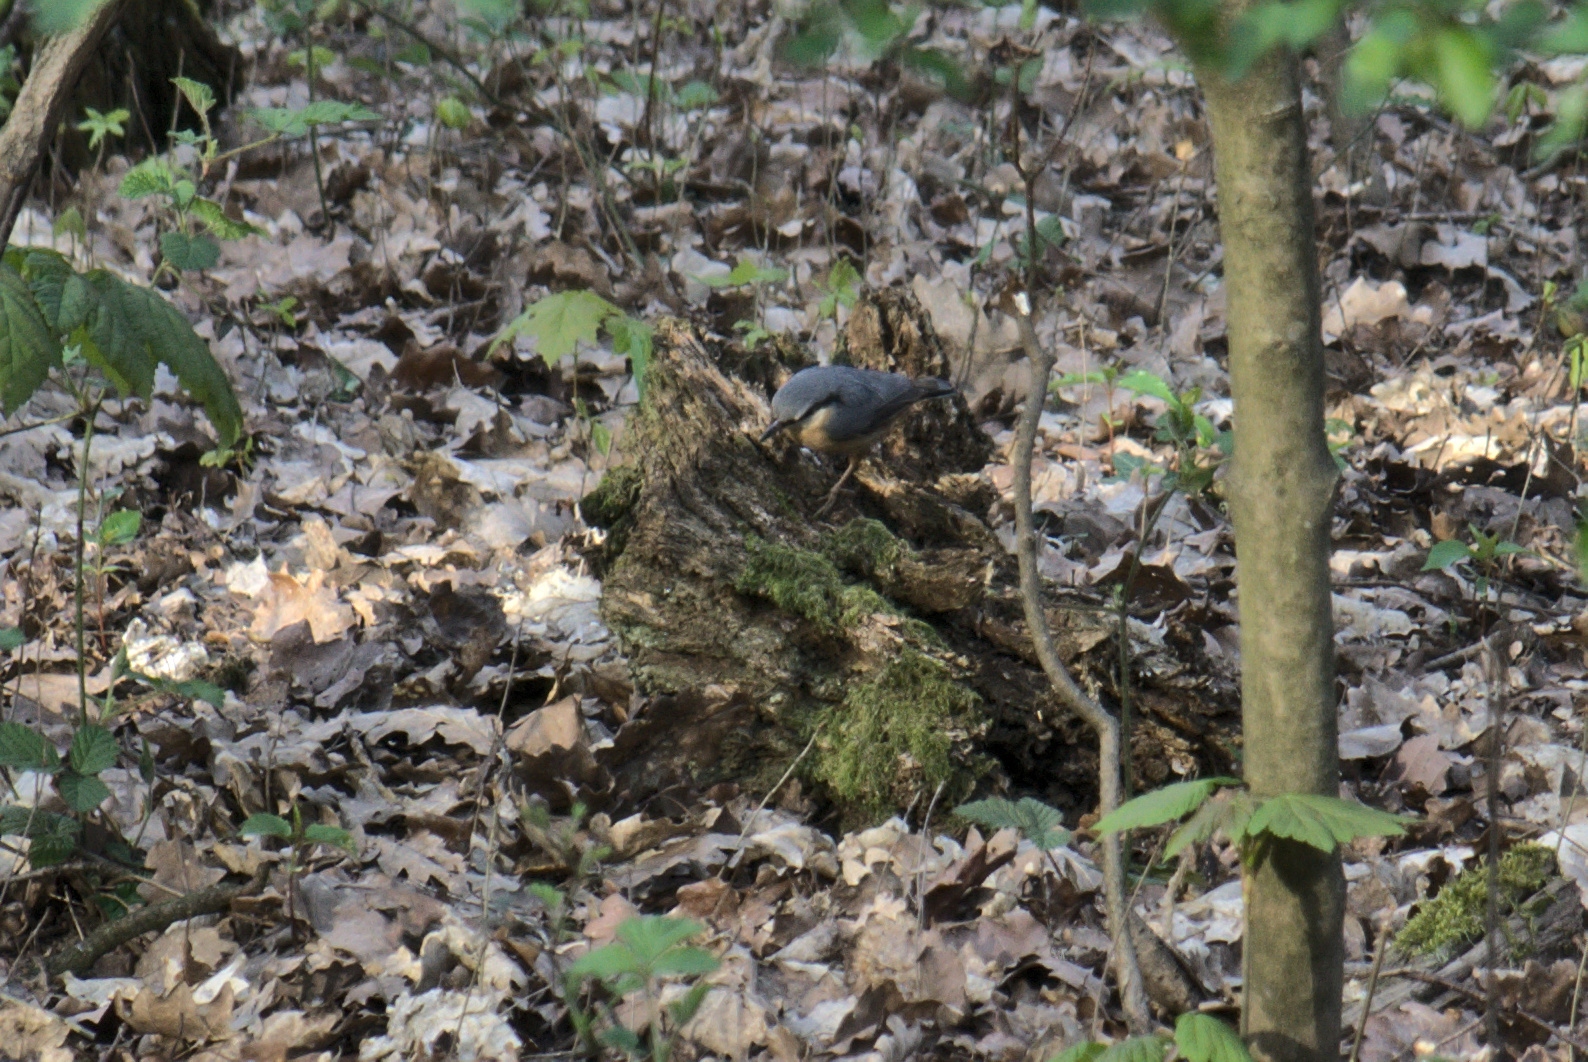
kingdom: Animalia
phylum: Chordata
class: Aves
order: Passeriformes
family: Sittidae
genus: Sitta
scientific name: Sitta europaea
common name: Eurasian nuthatch
